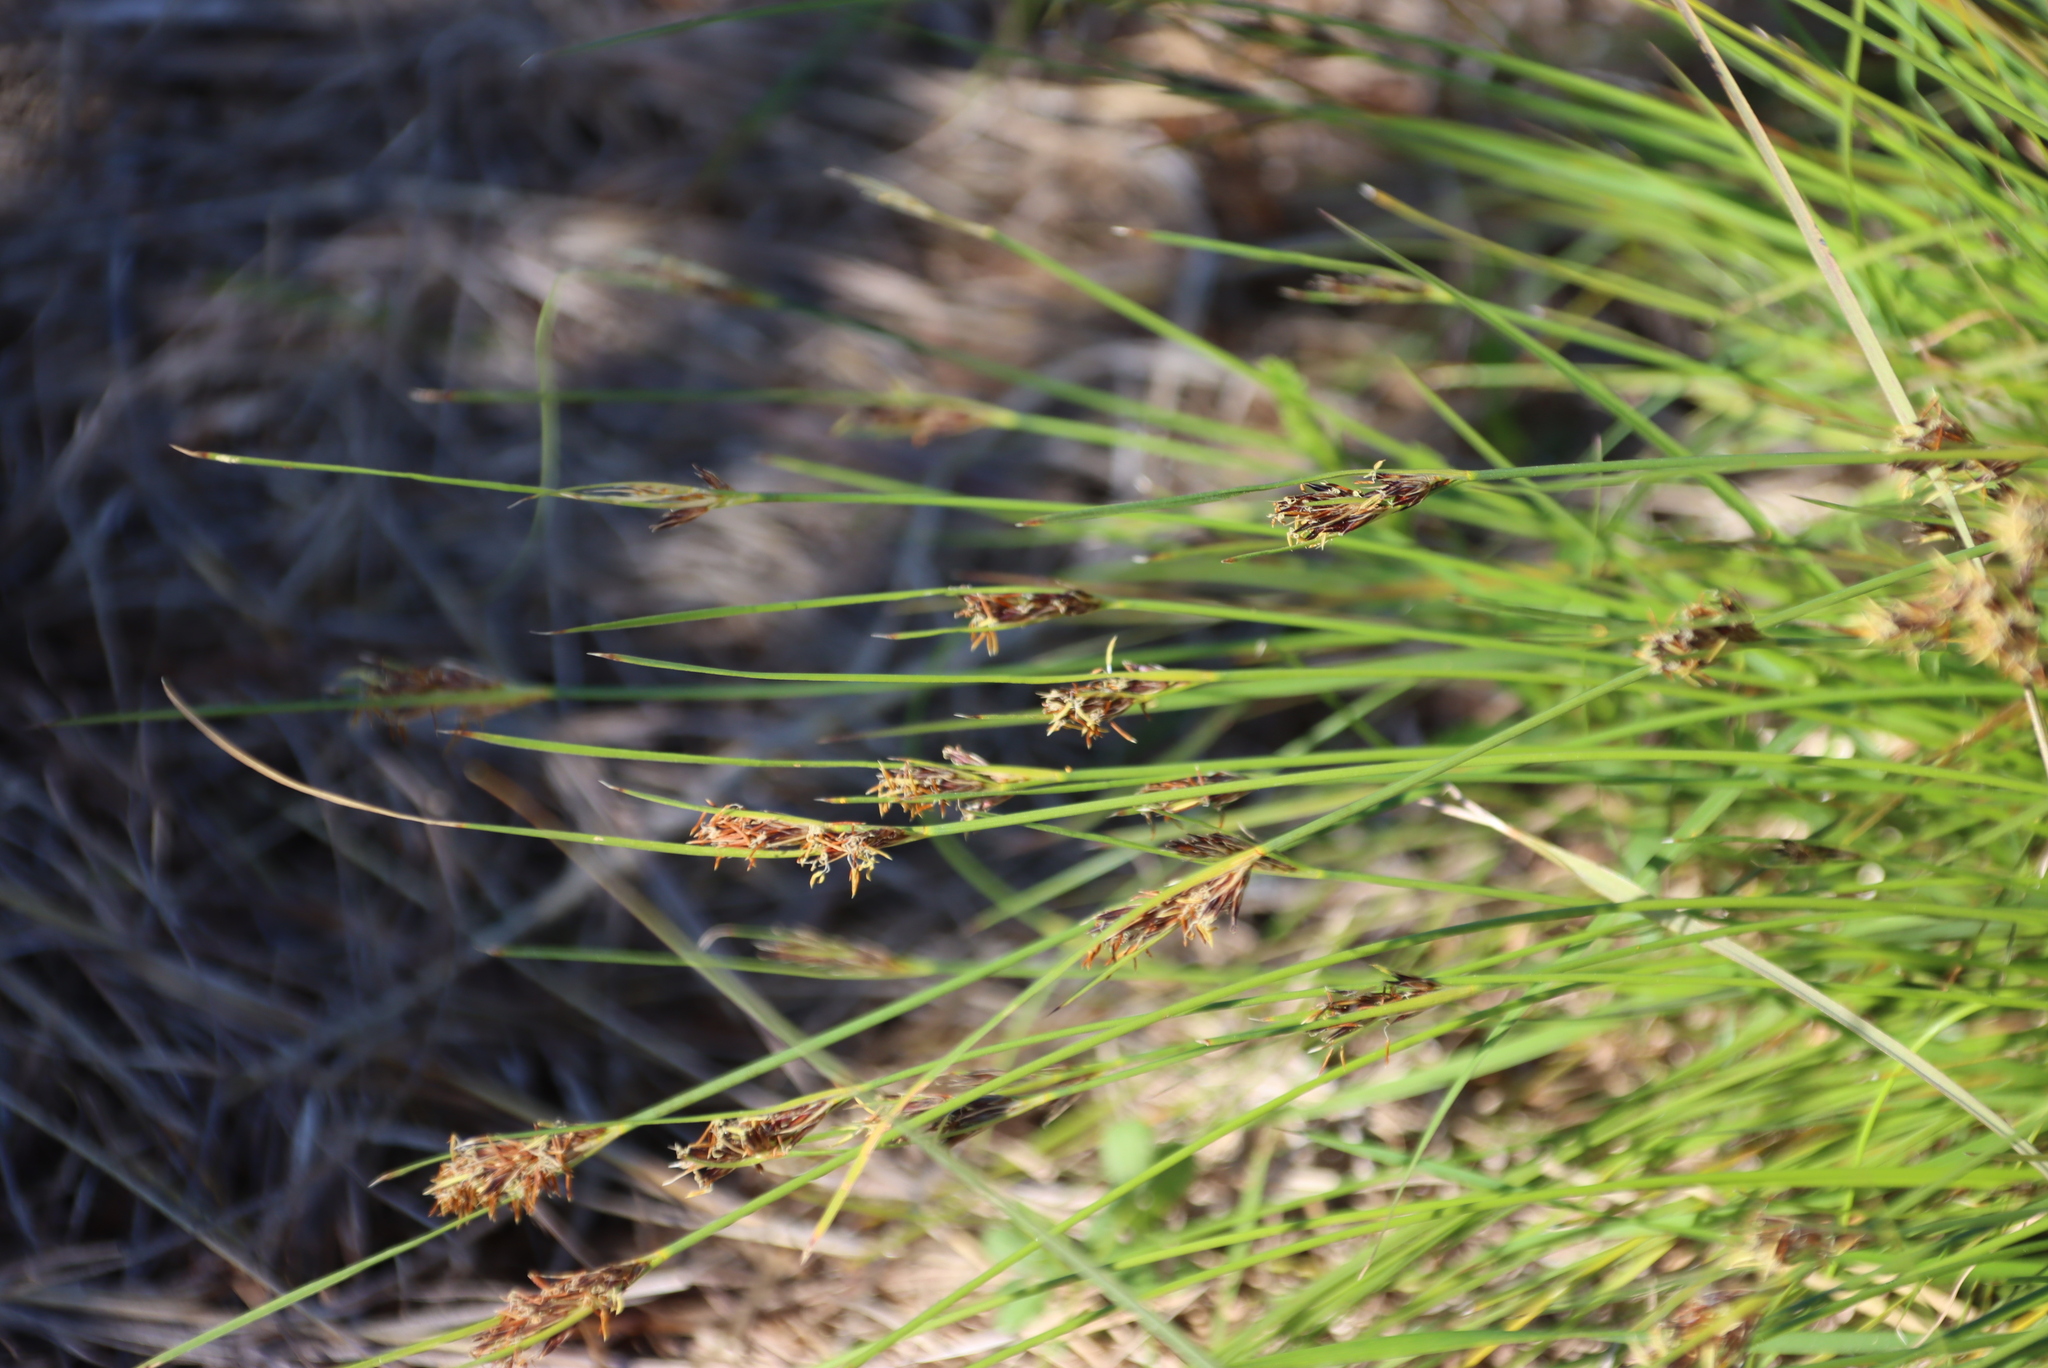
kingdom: Plantae
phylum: Tracheophyta
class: Liliopsida
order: Poales
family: Cyperaceae
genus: Schoenus
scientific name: Schoenus auritus
